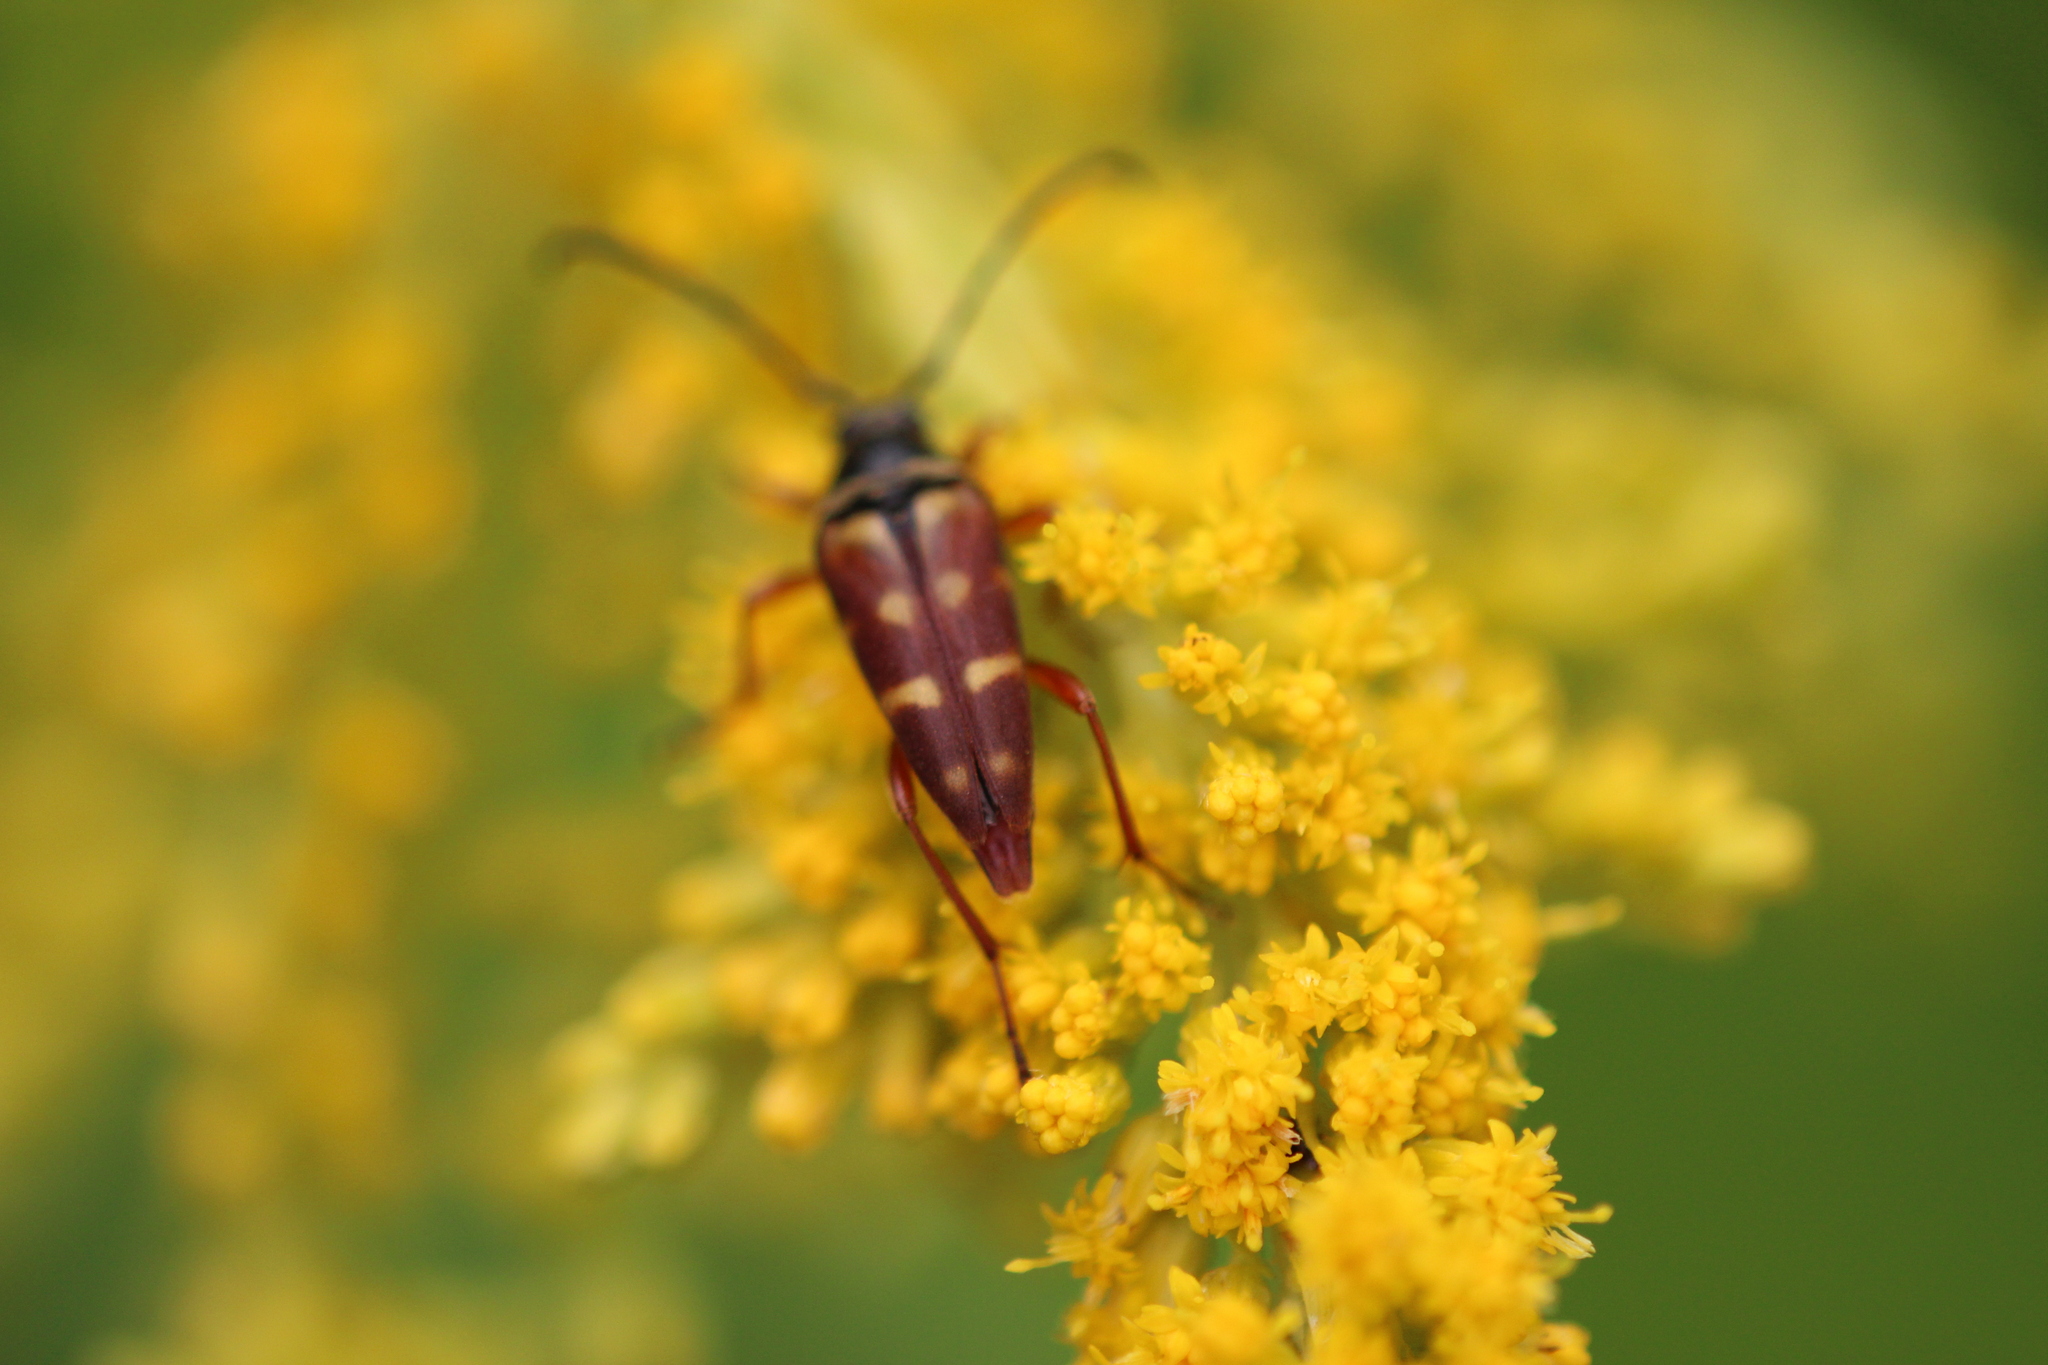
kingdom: Animalia
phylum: Arthropoda
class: Insecta
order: Coleoptera
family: Cerambycidae
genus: Typocerus
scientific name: Typocerus velutinus
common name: Banded longhorn beetle
